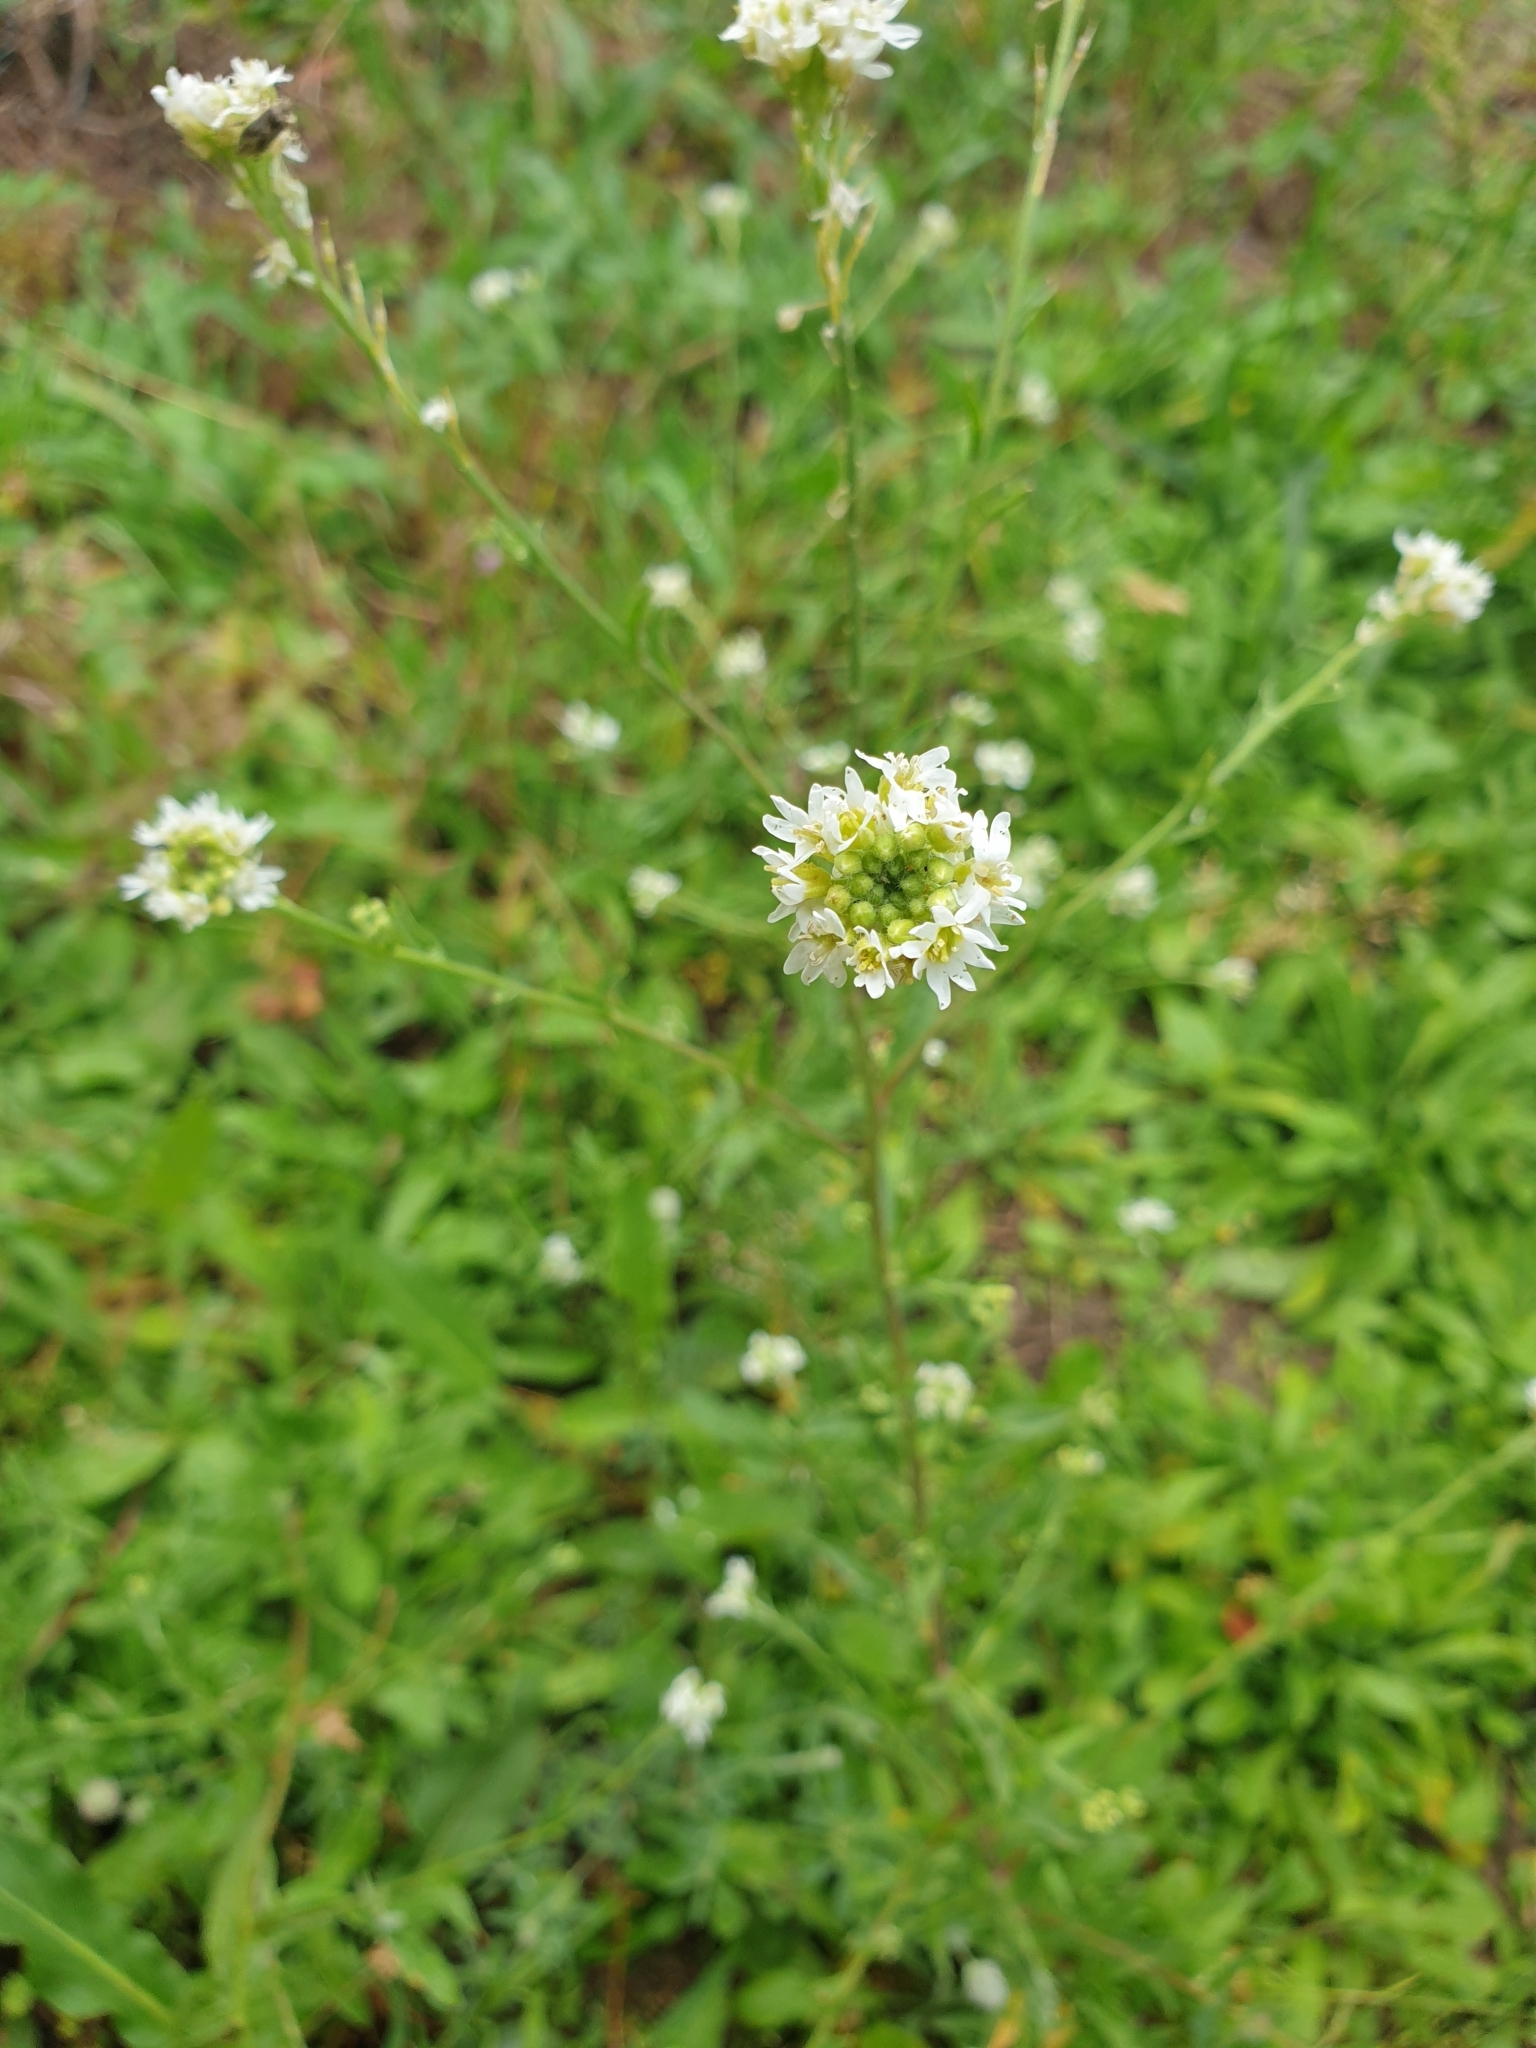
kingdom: Plantae
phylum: Tracheophyta
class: Magnoliopsida
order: Brassicales
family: Brassicaceae
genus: Berteroa
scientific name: Berteroa incana
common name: Hoary alison
